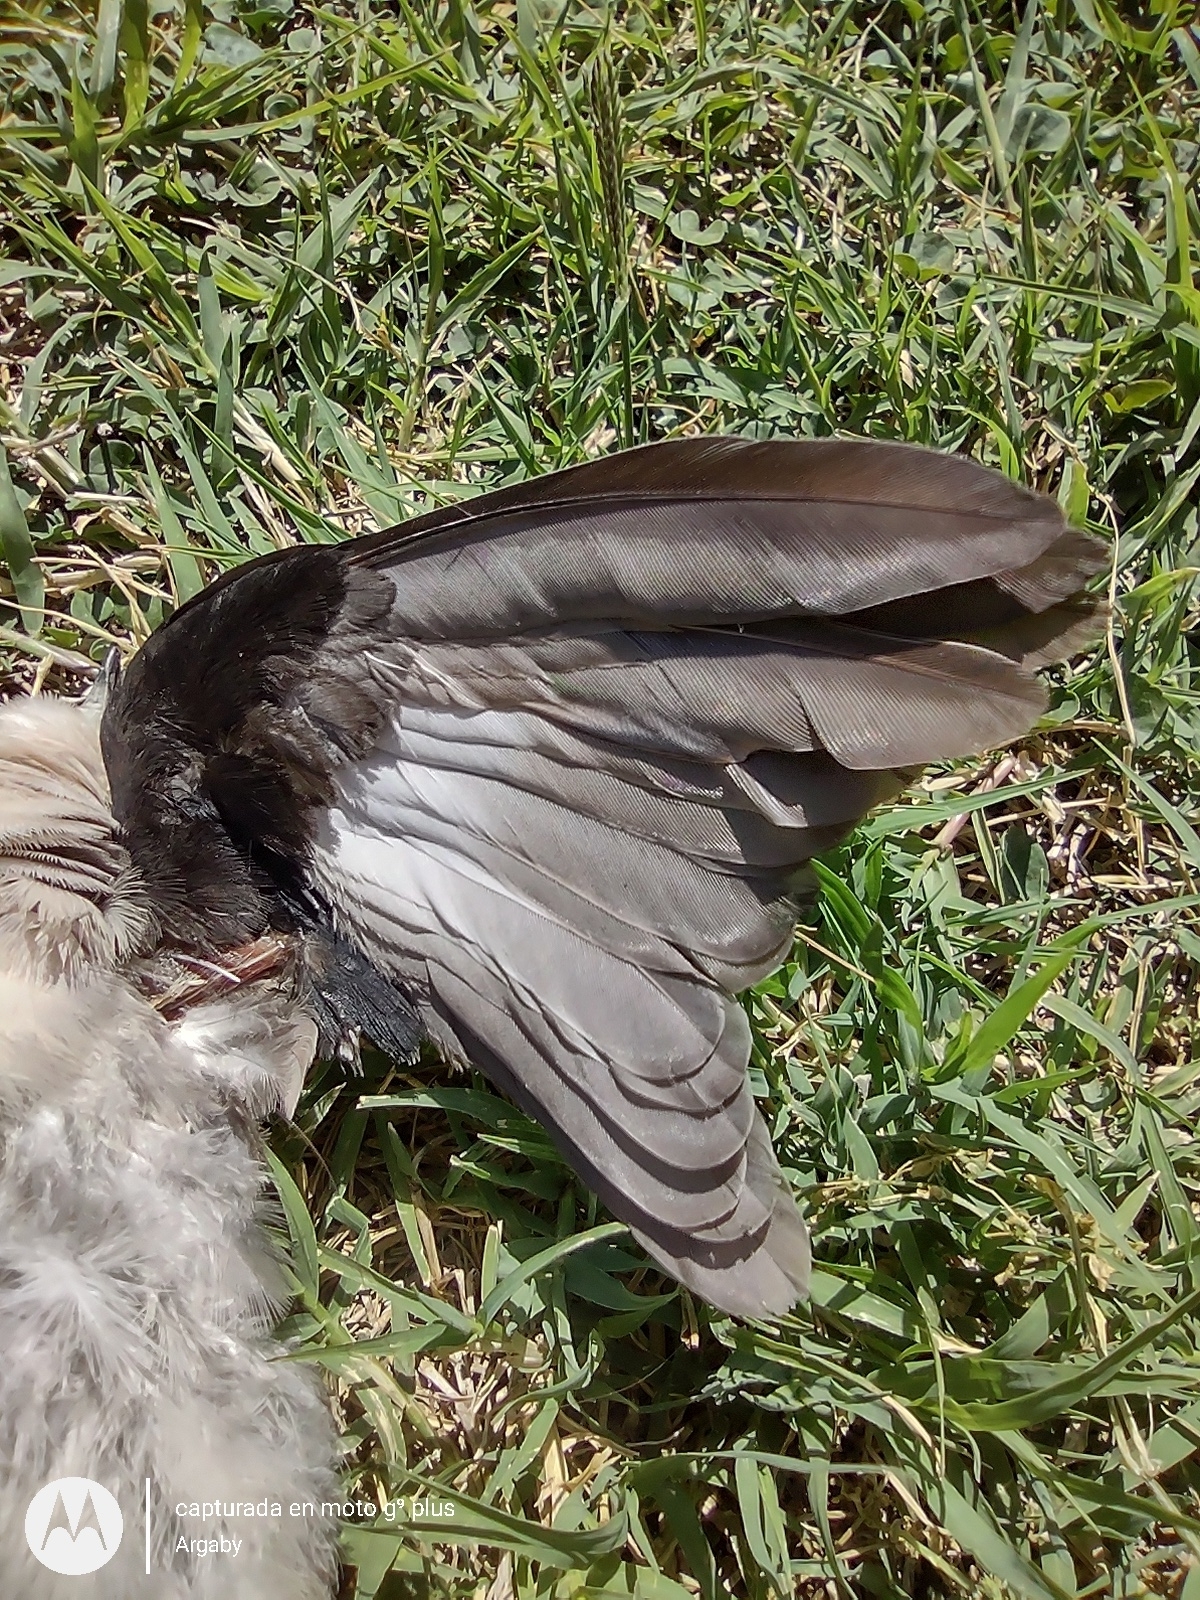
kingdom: Animalia
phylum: Chordata
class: Aves
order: Columbiformes
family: Columbidae
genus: Columbina
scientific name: Columbina picui
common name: Picui ground dove
